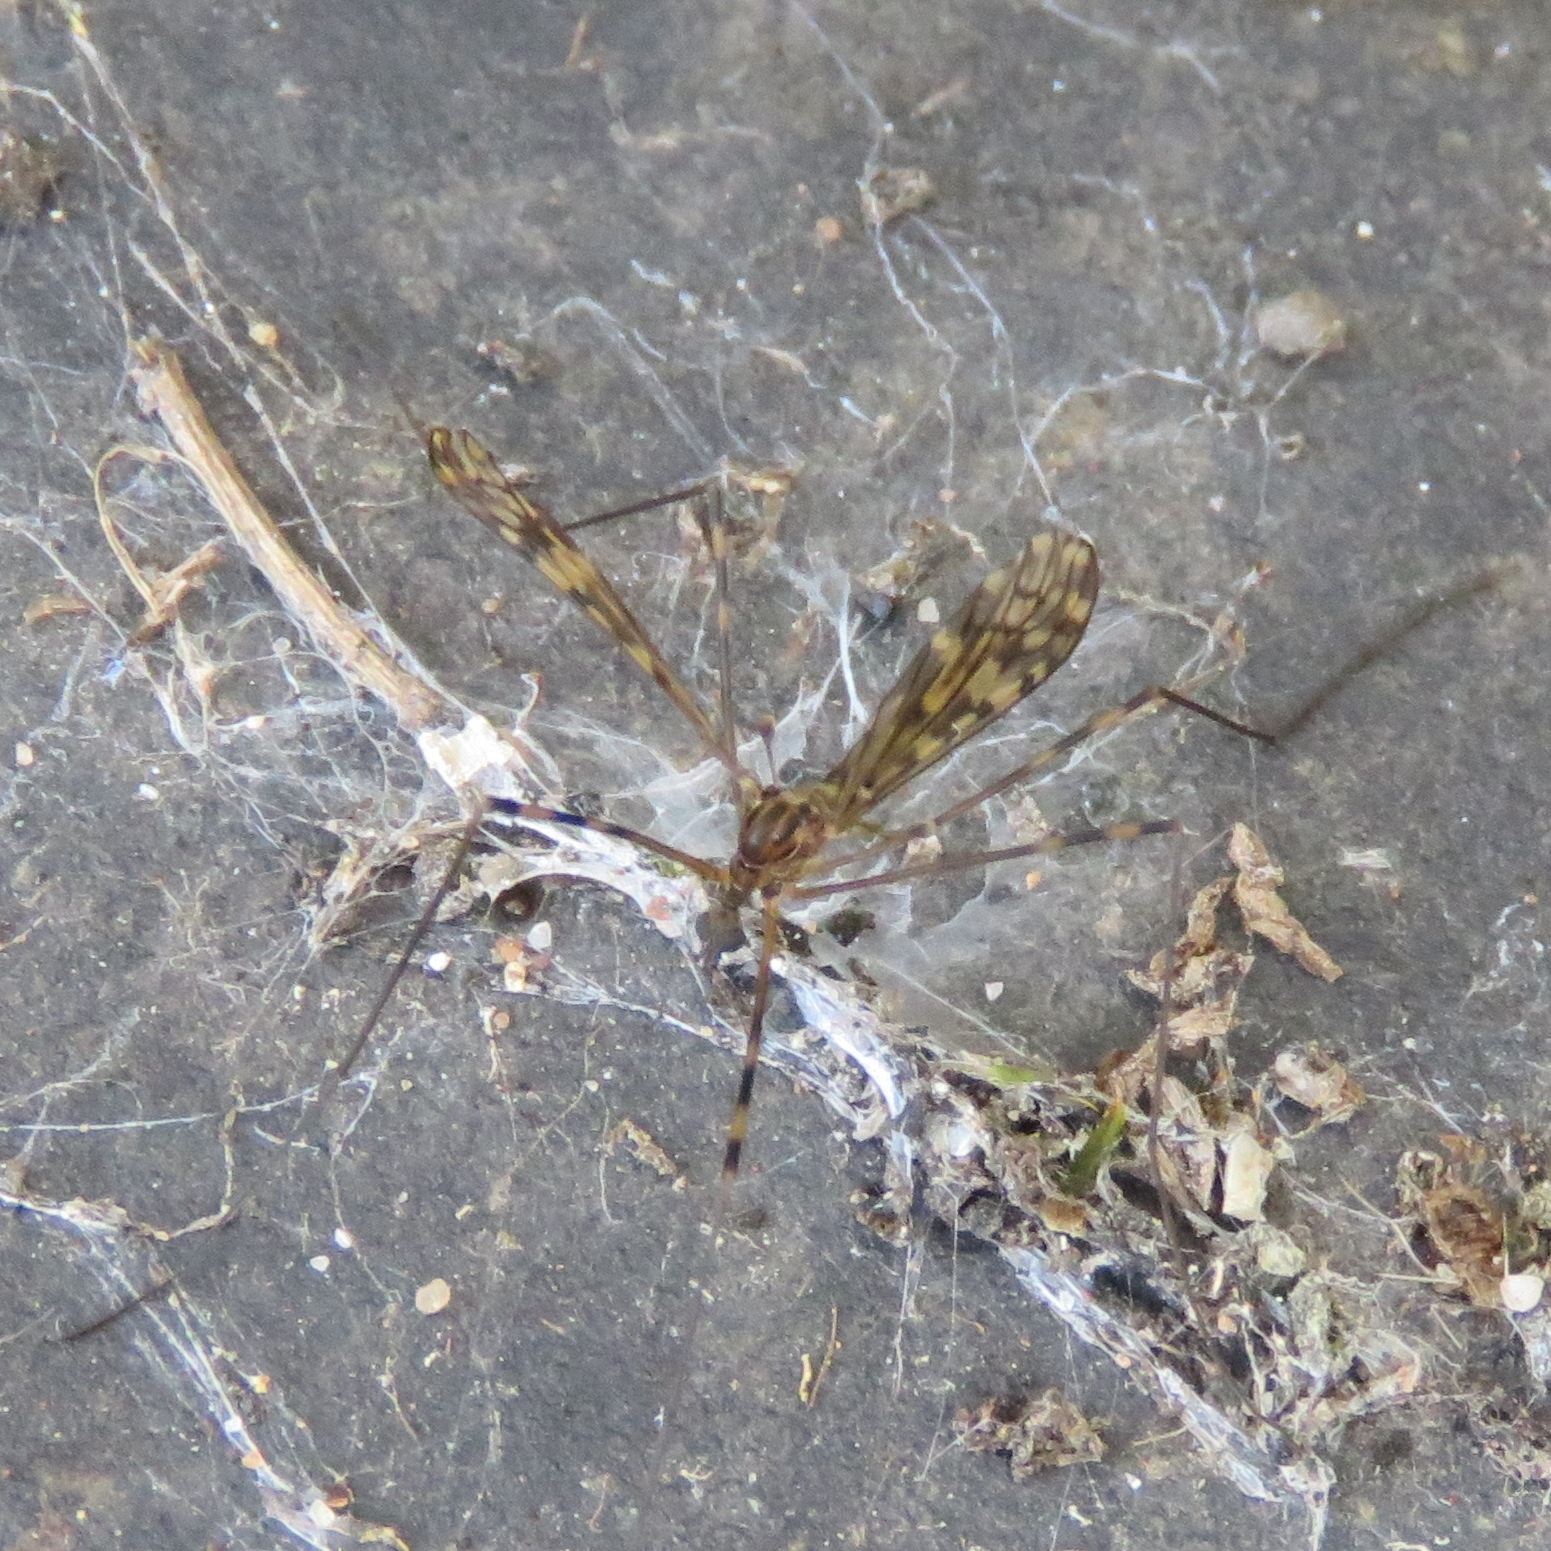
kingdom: Animalia
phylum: Arthropoda
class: Insecta
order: Diptera
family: Limoniidae
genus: Limonia
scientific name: Limonia nubeculosa
